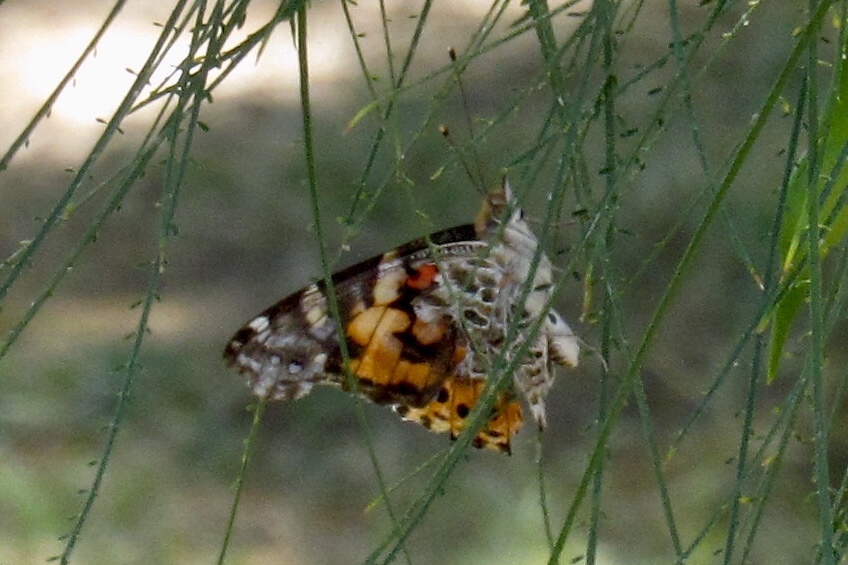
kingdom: Animalia
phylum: Arthropoda
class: Insecta
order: Lepidoptera
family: Nymphalidae
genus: Vanessa
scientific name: Vanessa cardui
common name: Painted lady
